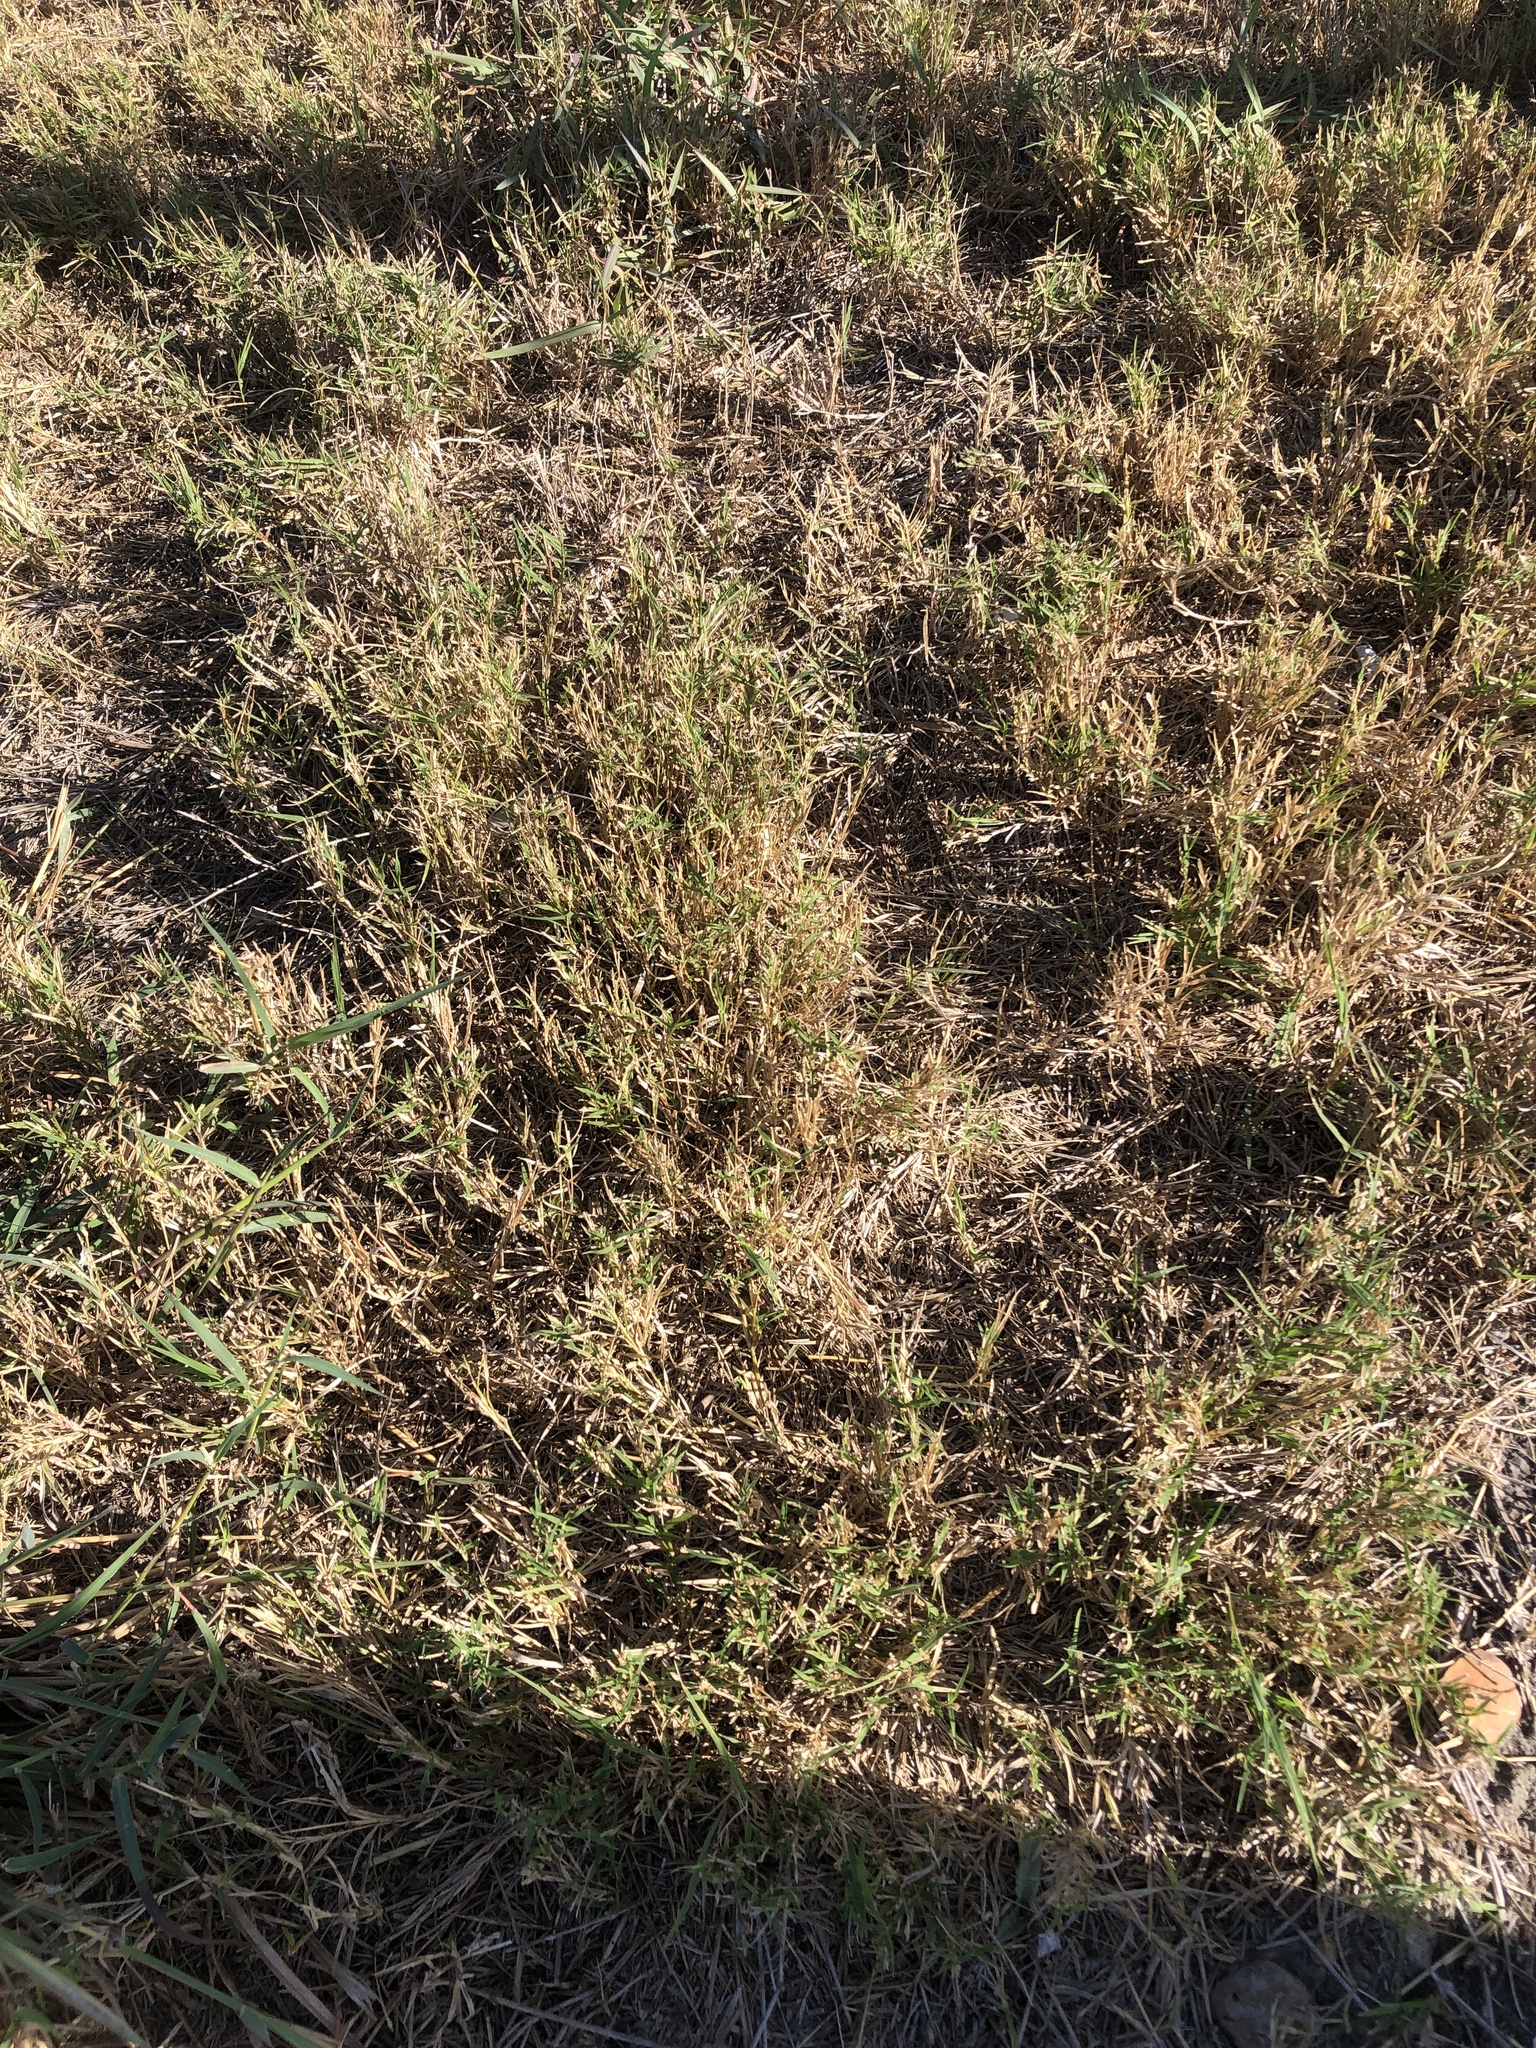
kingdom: Plantae
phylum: Tracheophyta
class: Liliopsida
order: Poales
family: Poaceae
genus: Cynodon
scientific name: Cynodon dactylon
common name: Bermuda grass
